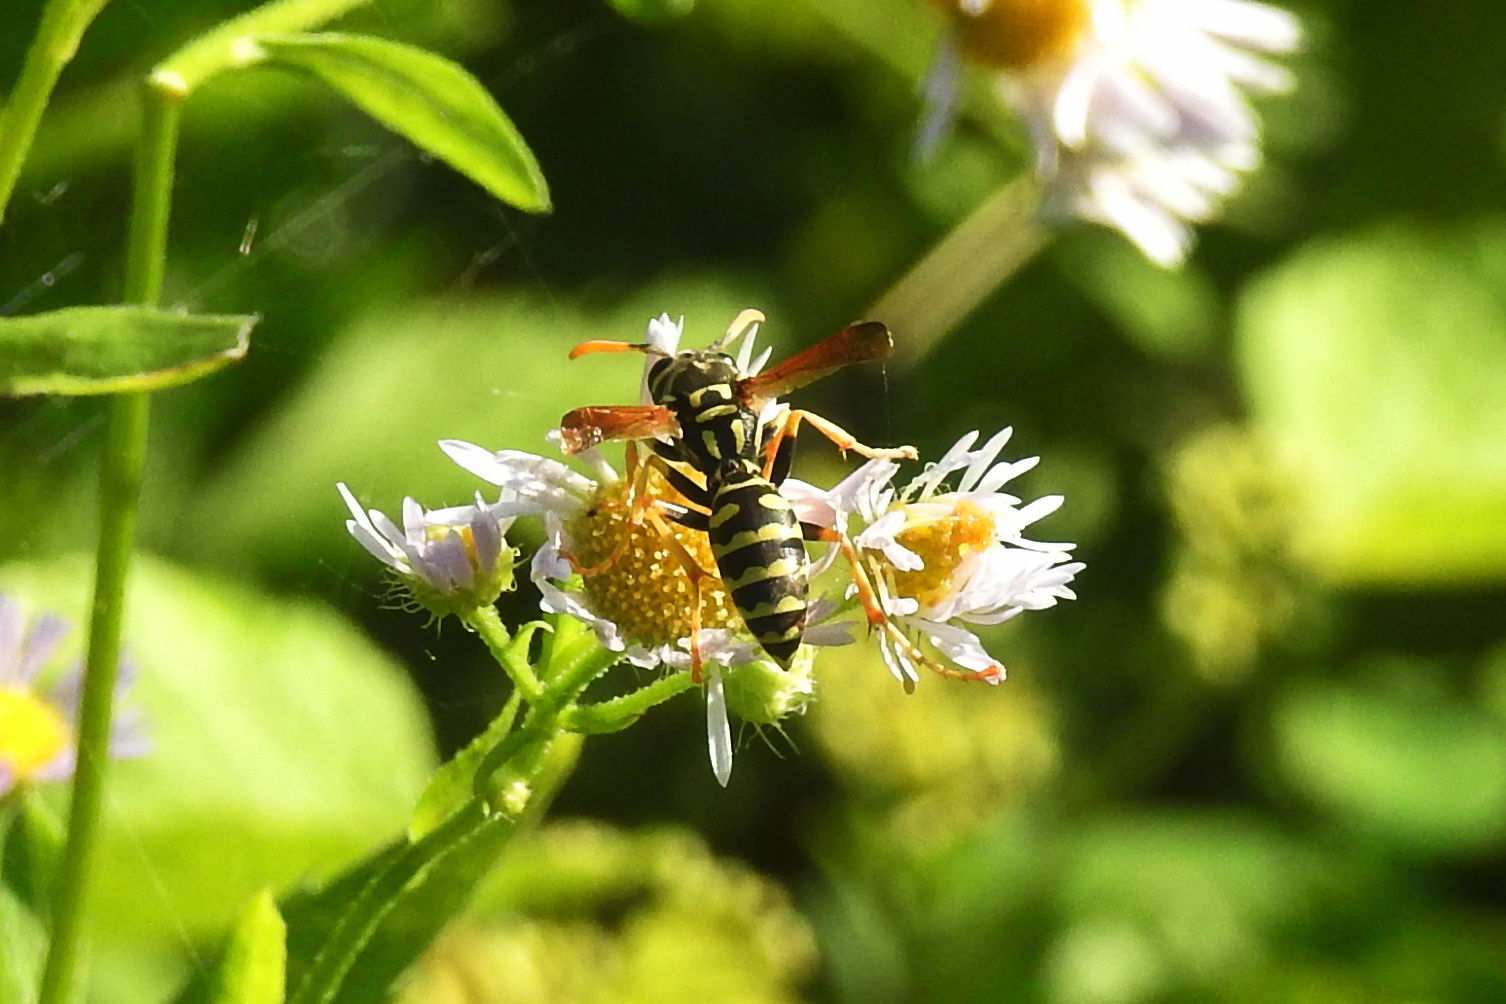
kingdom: Animalia
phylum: Arthropoda
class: Insecta
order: Hymenoptera
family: Eumenidae
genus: Polistes
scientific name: Polistes dominula
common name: Paper wasp
